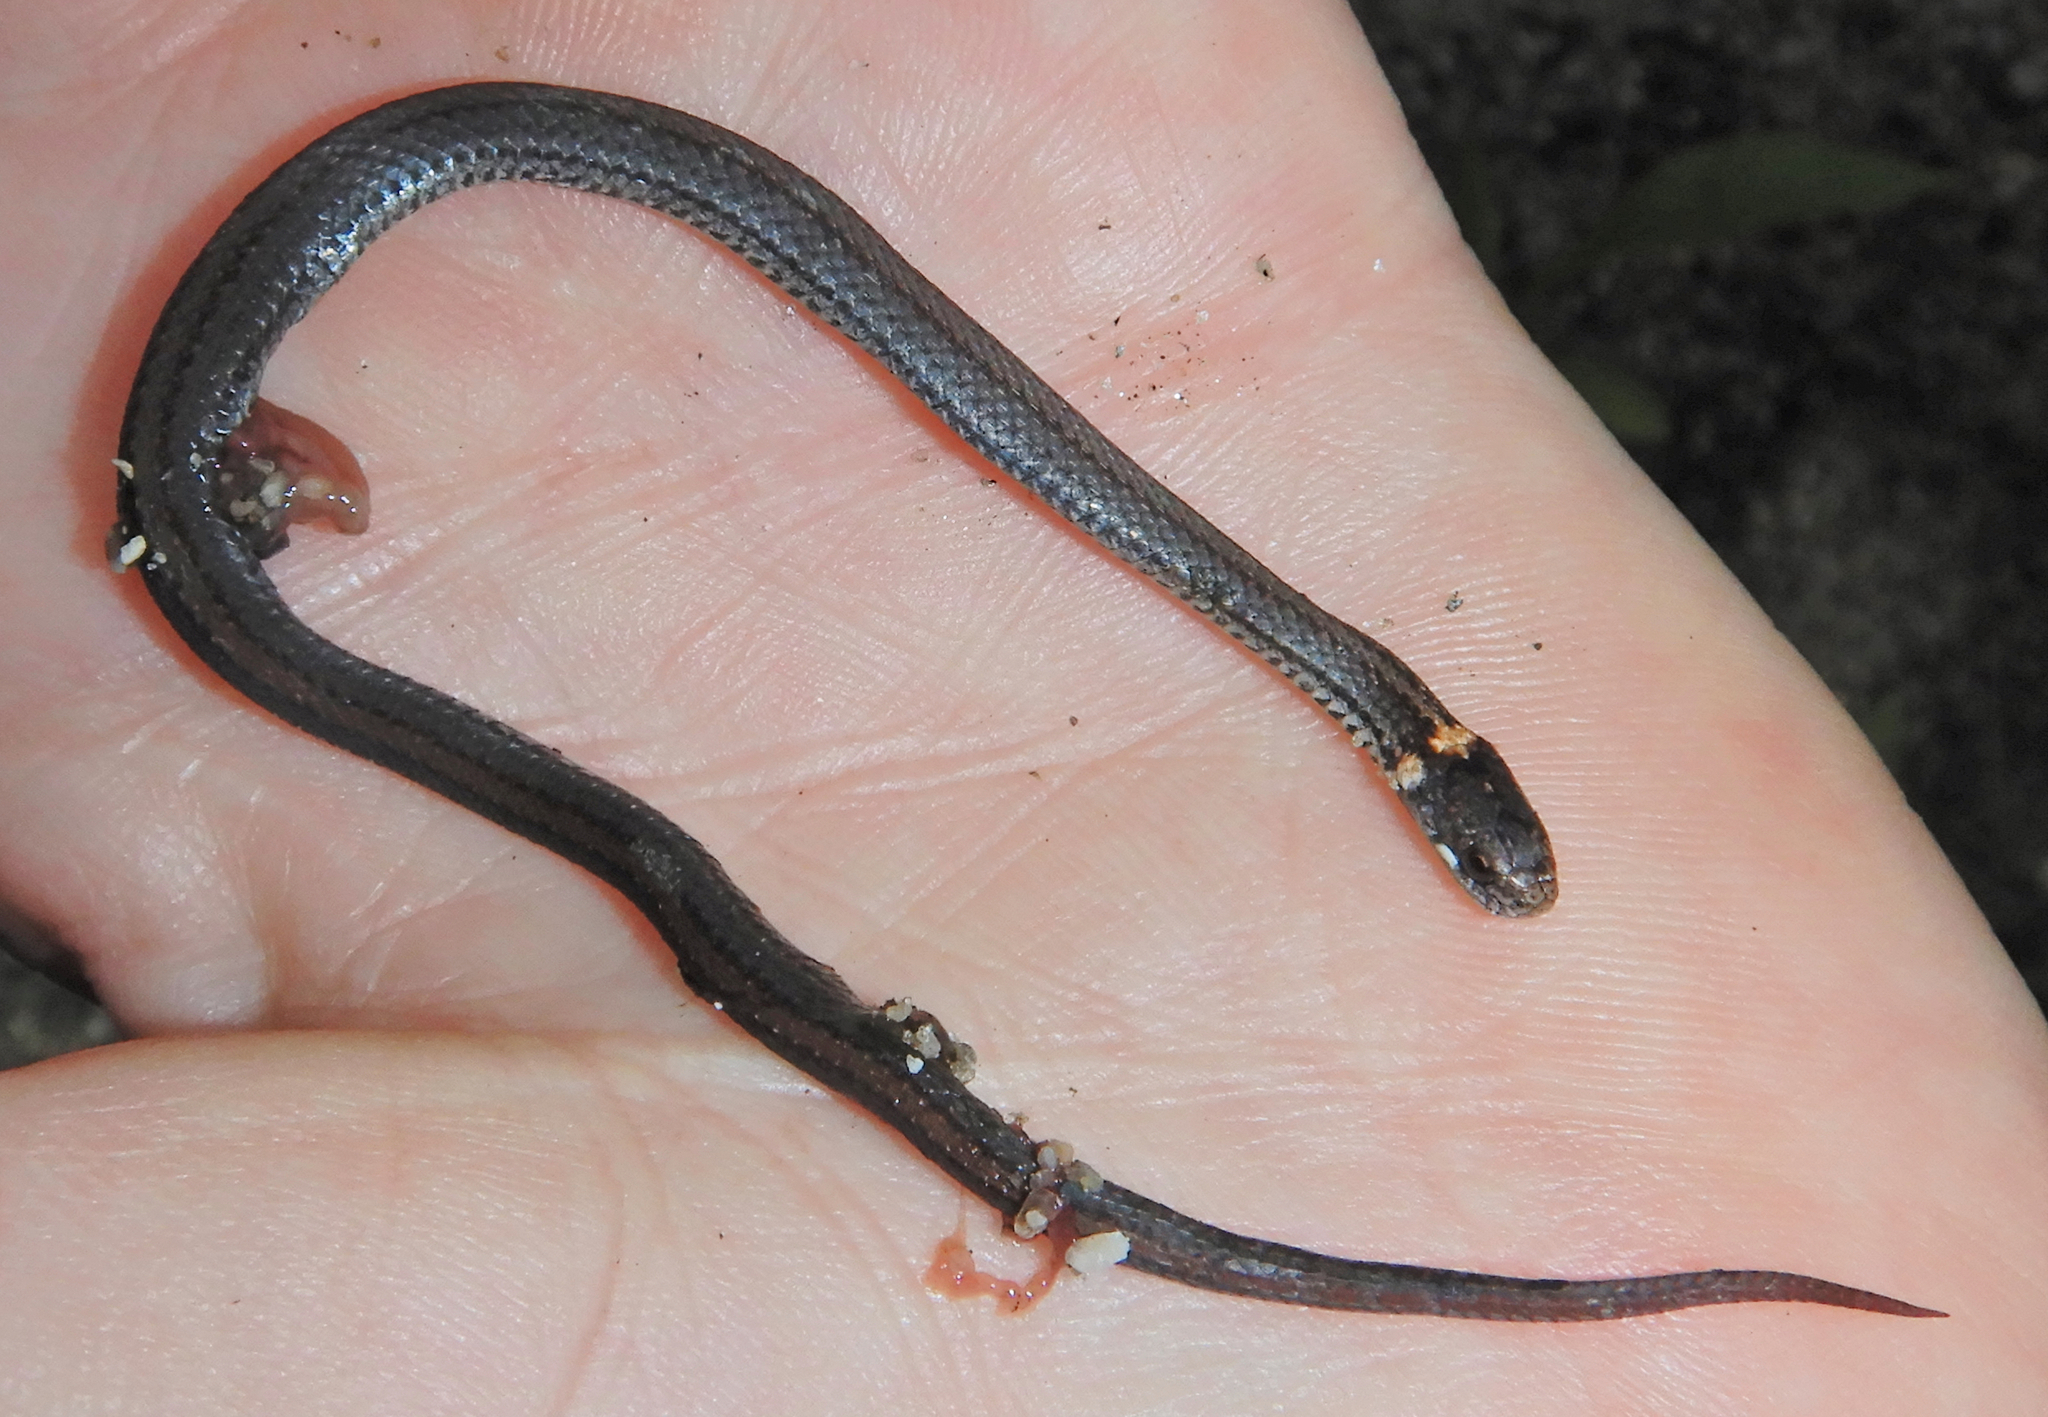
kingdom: Animalia
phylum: Chordata
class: Squamata
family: Colubridae
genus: Storeria
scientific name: Storeria occipitomaculata
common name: Redbelly snake
